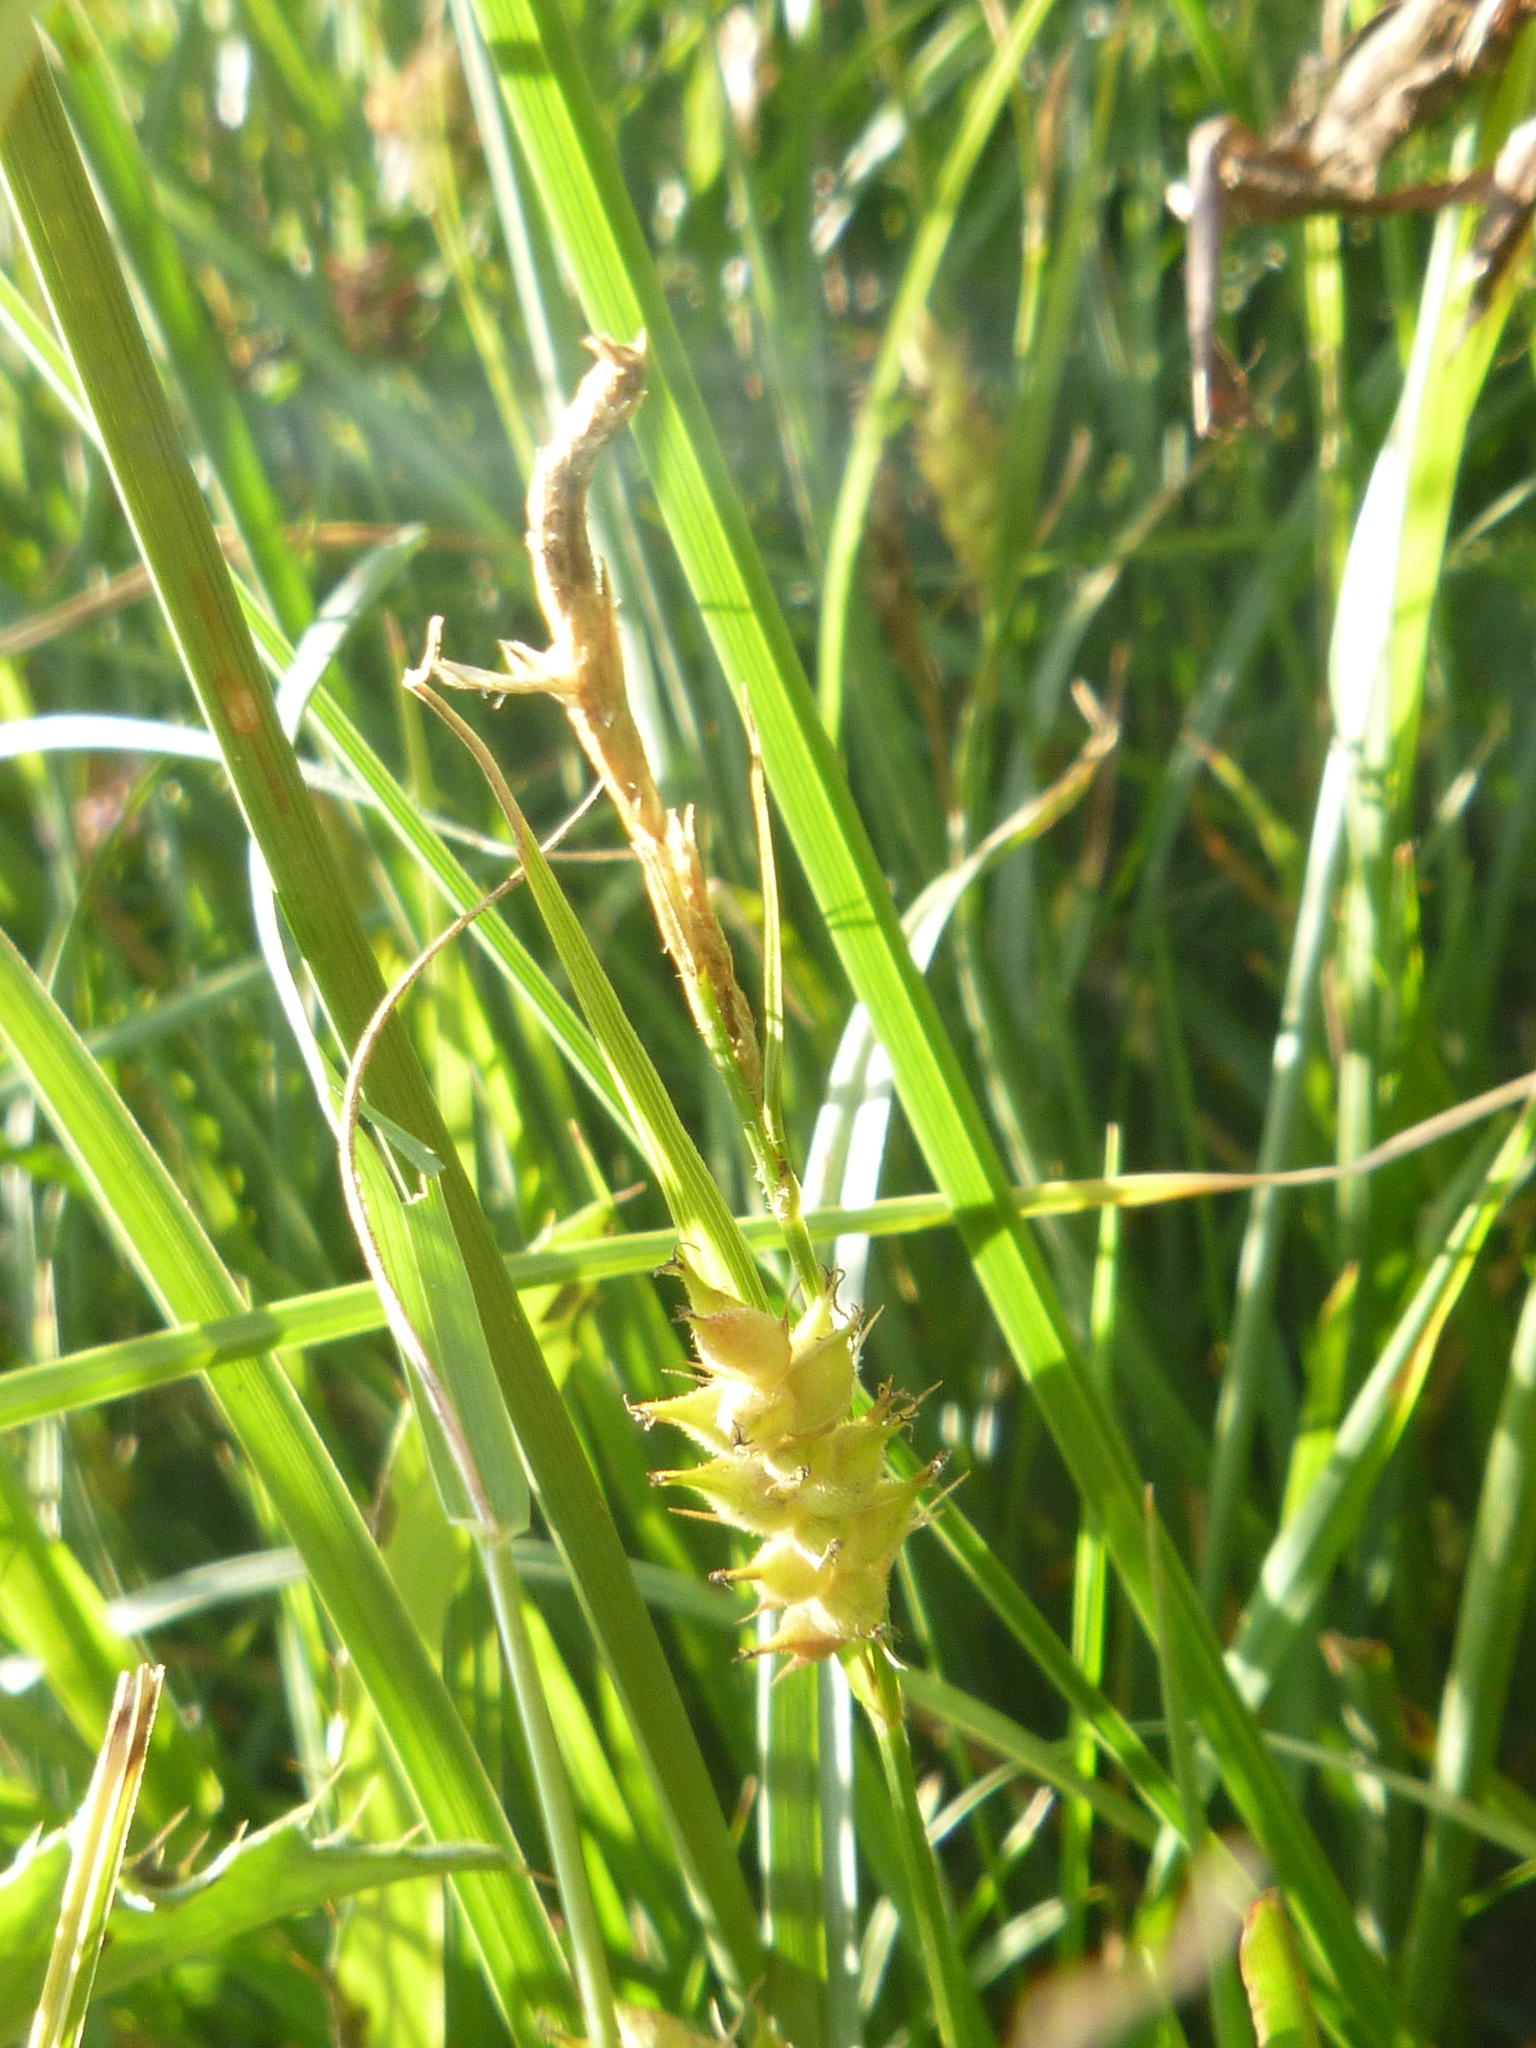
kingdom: Plantae
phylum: Tracheophyta
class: Liliopsida
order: Poales
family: Cyperaceae
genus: Carex
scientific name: Carex hirta
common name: Hairy sedge
